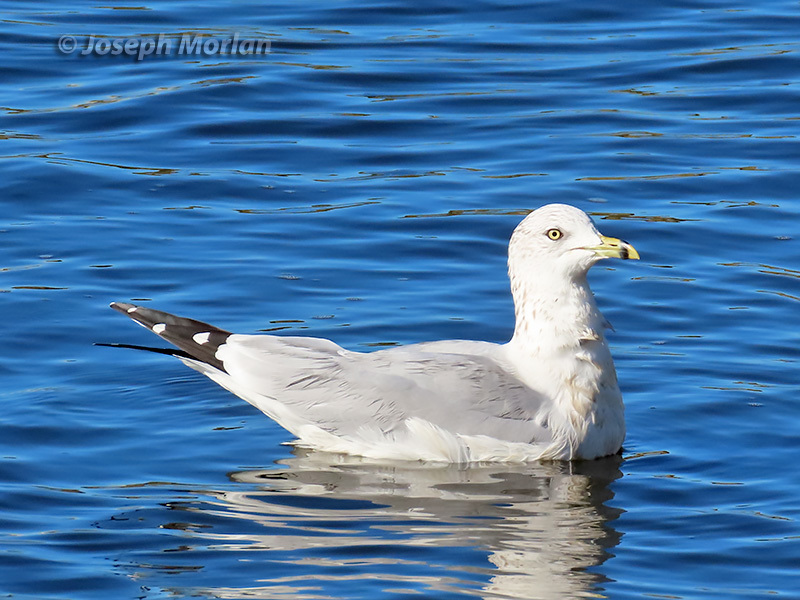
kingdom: Animalia
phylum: Chordata
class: Aves
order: Charadriiformes
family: Laridae
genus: Larus
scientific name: Larus delawarensis
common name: Ring-billed gull
